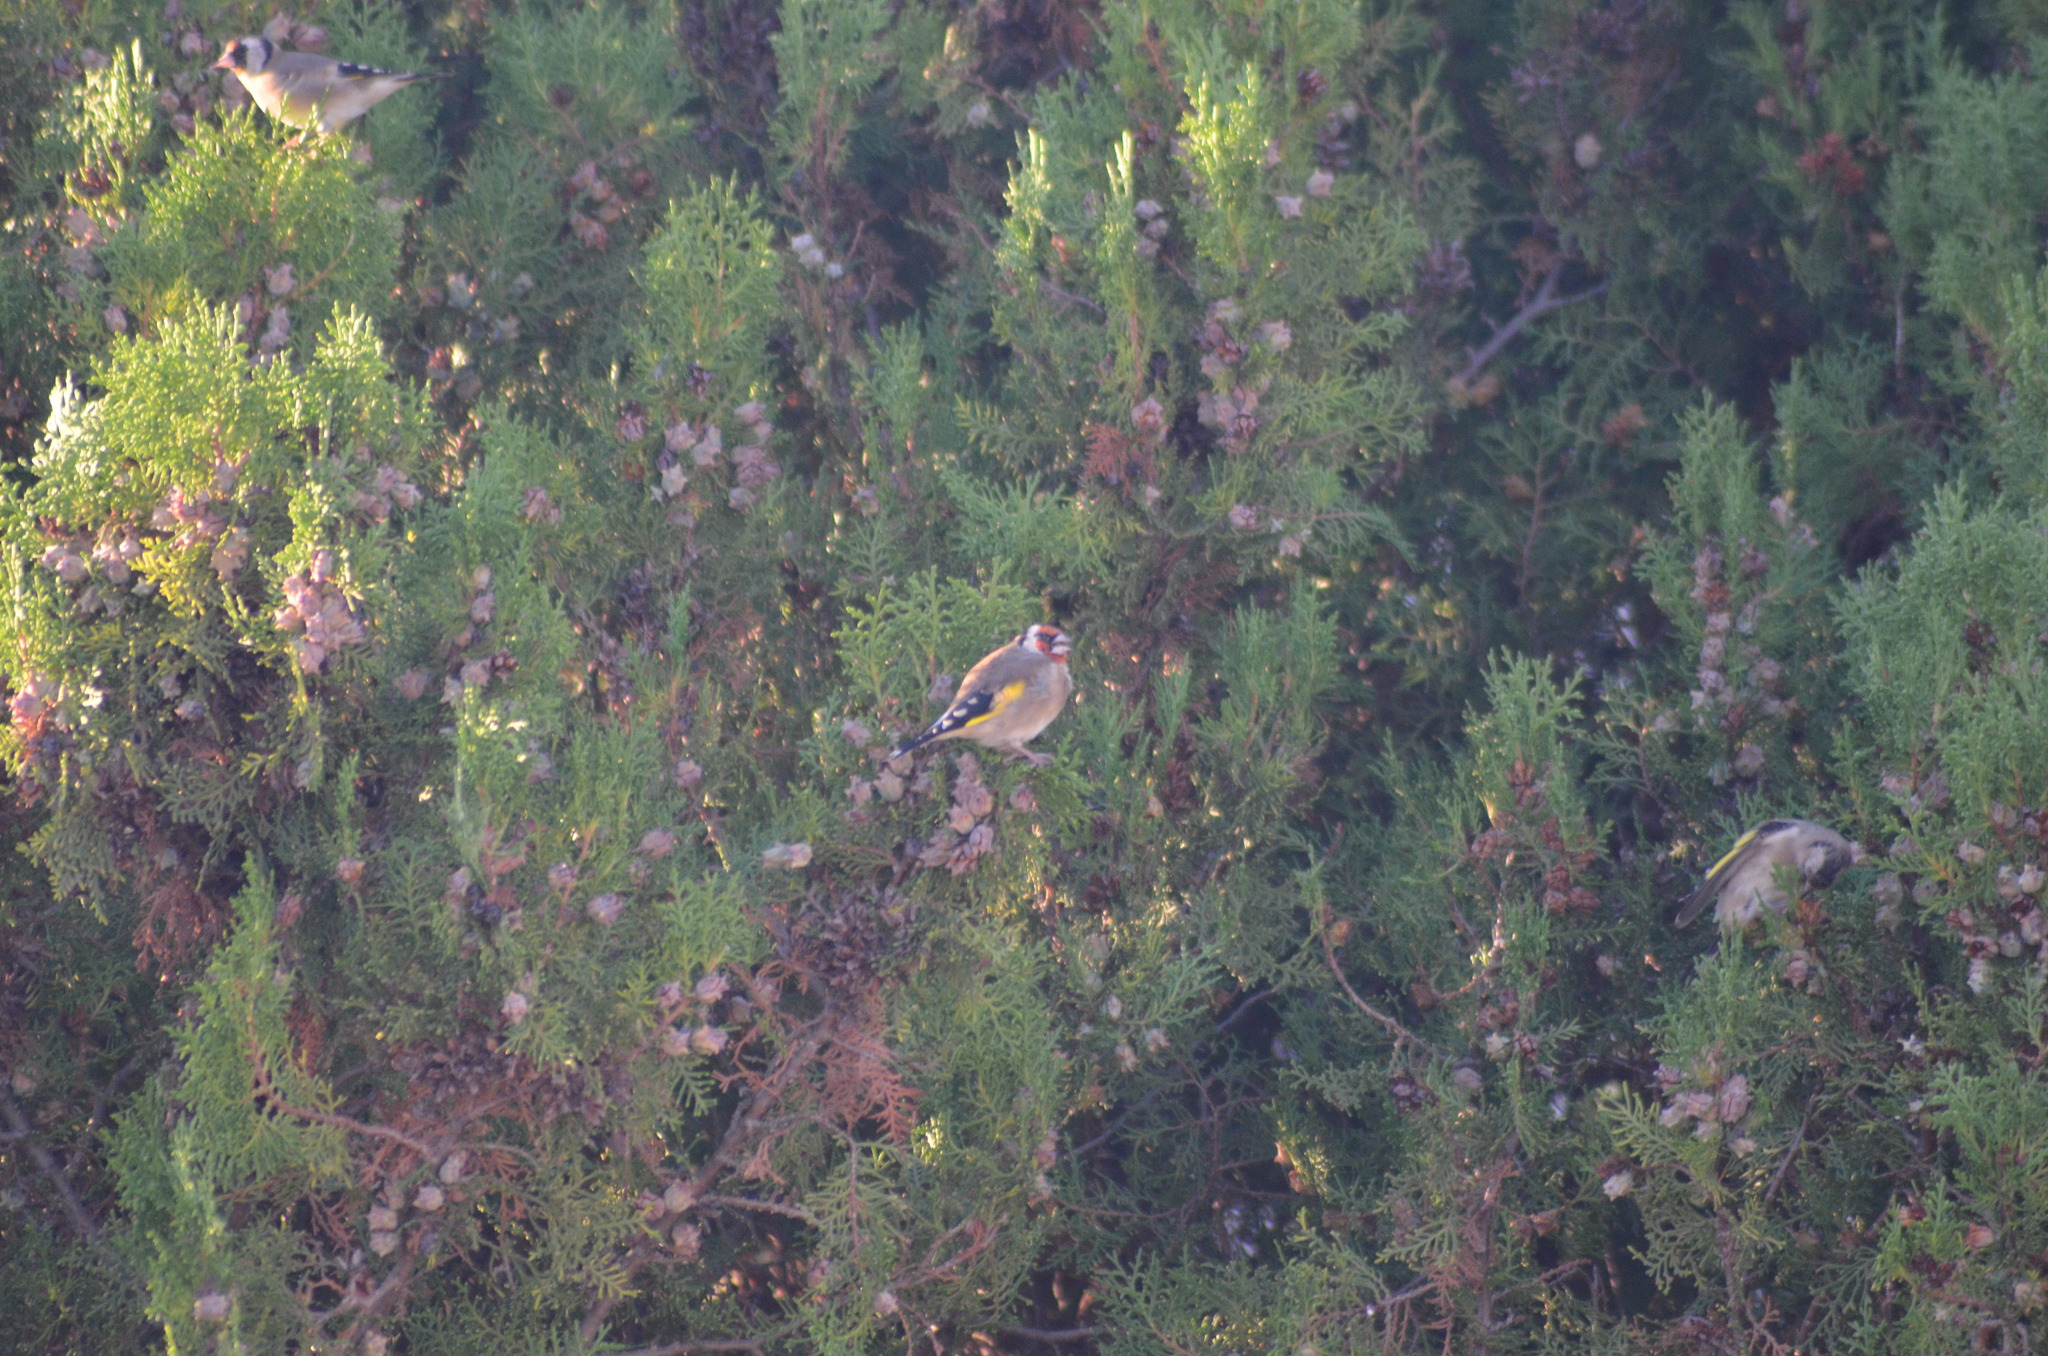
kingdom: Animalia
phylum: Chordata
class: Aves
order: Passeriformes
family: Fringillidae
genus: Carduelis
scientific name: Carduelis carduelis
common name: European goldfinch
